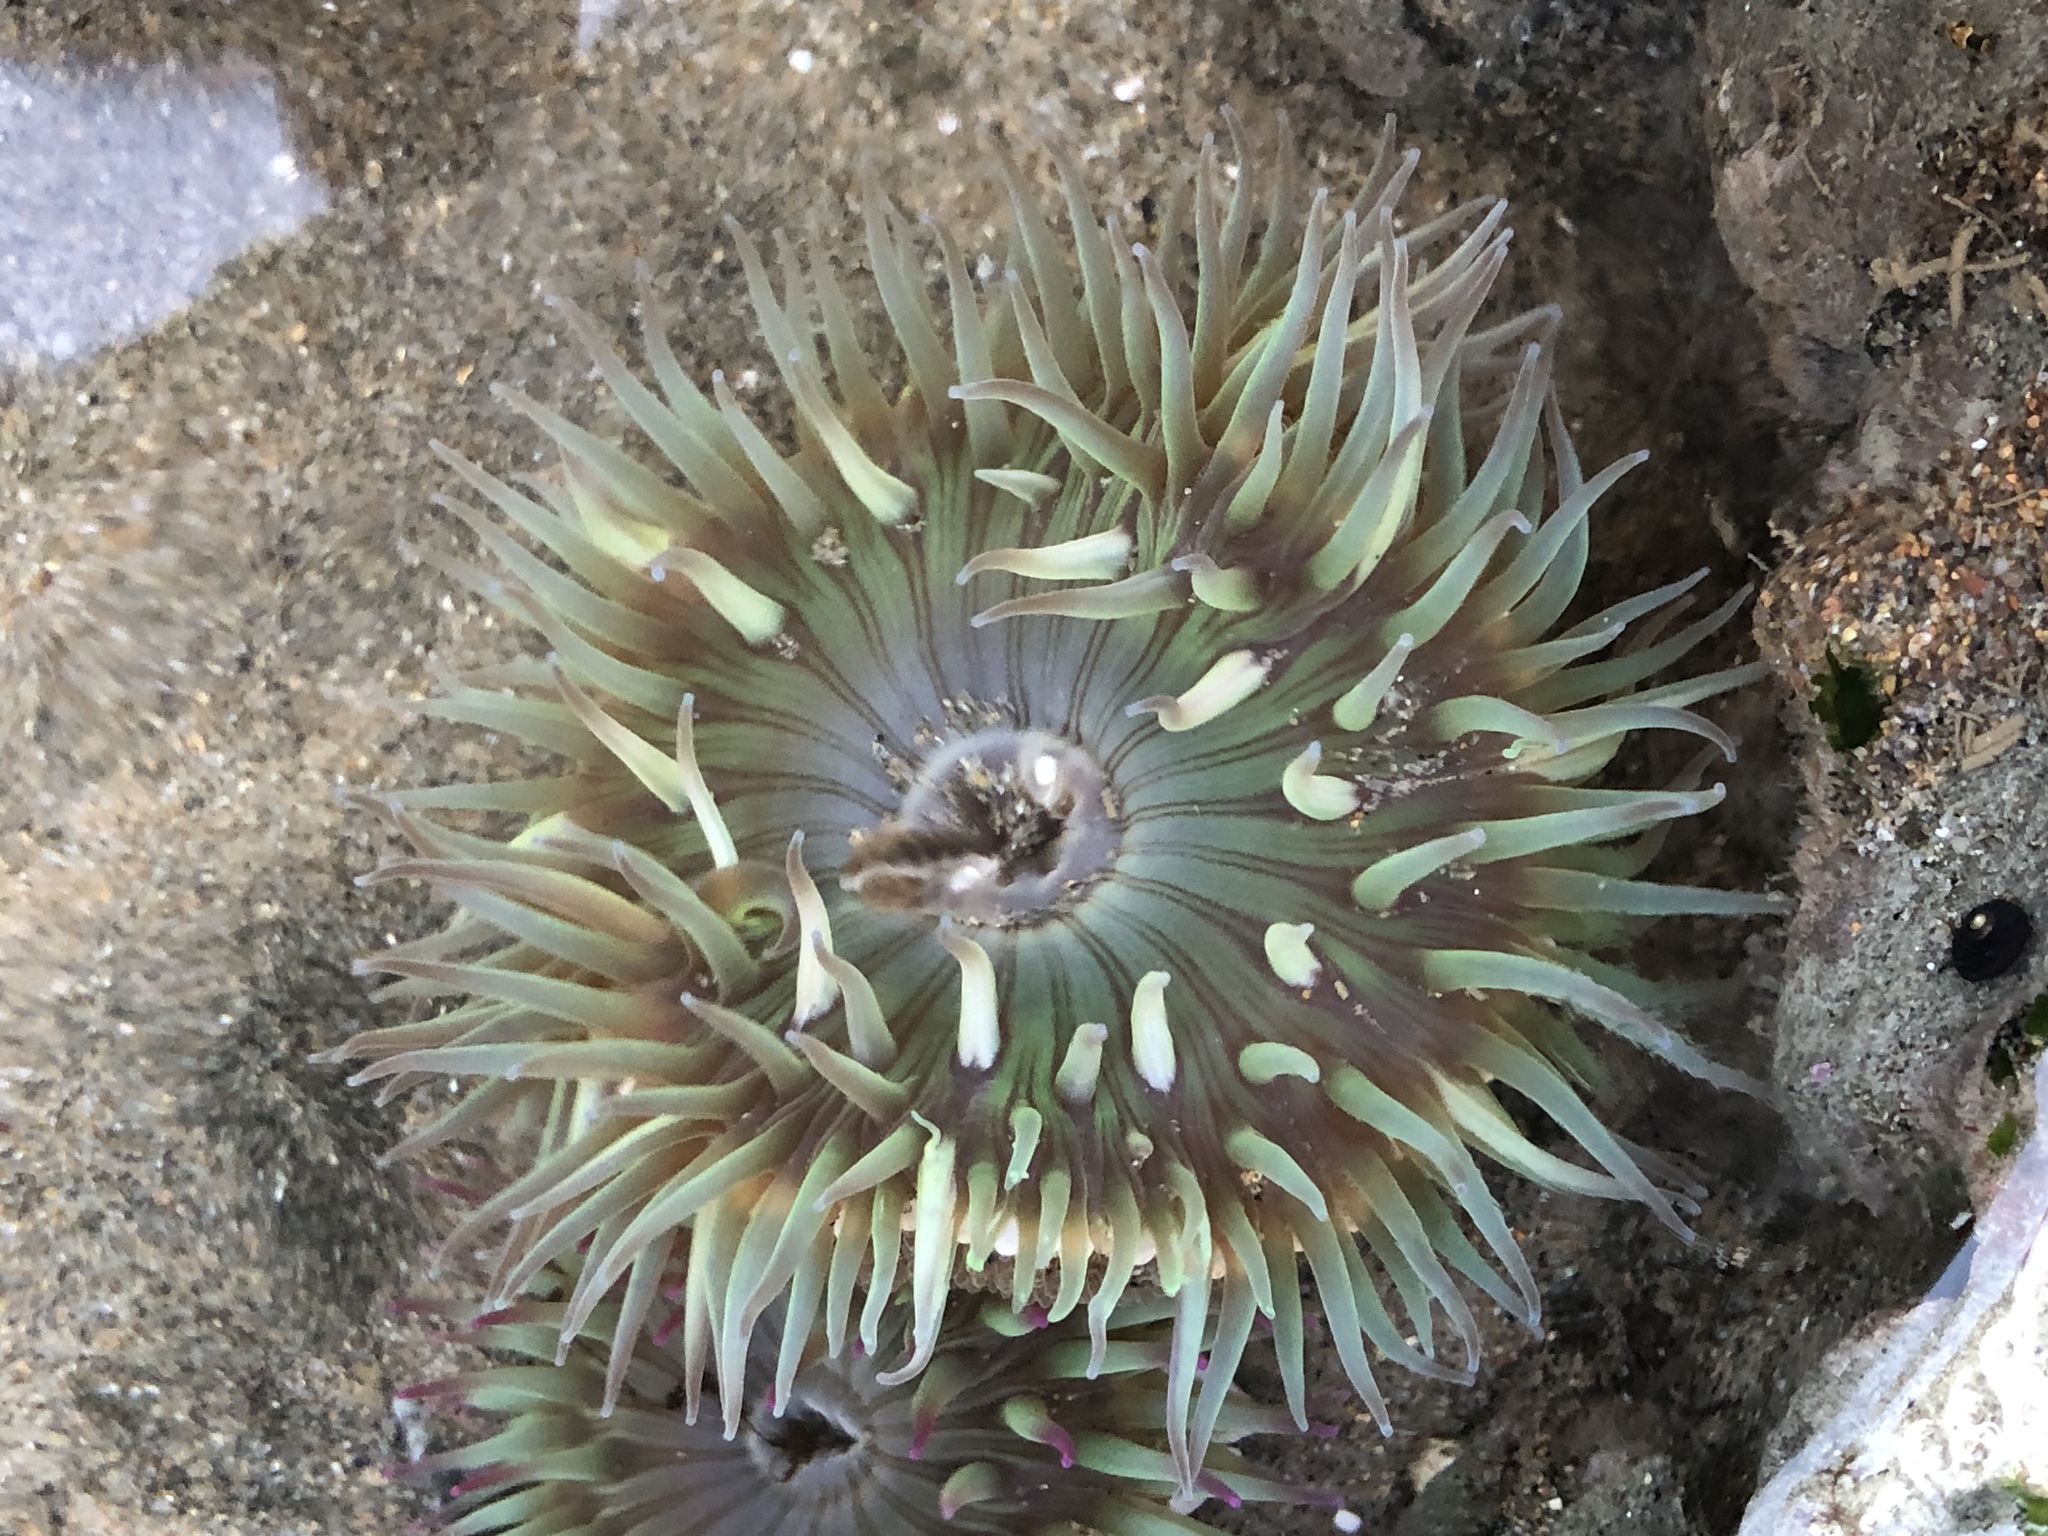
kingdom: Animalia
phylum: Cnidaria
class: Anthozoa
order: Actiniaria
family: Actiniidae
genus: Anthopleura
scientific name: Anthopleura sola
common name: Sun anemone
